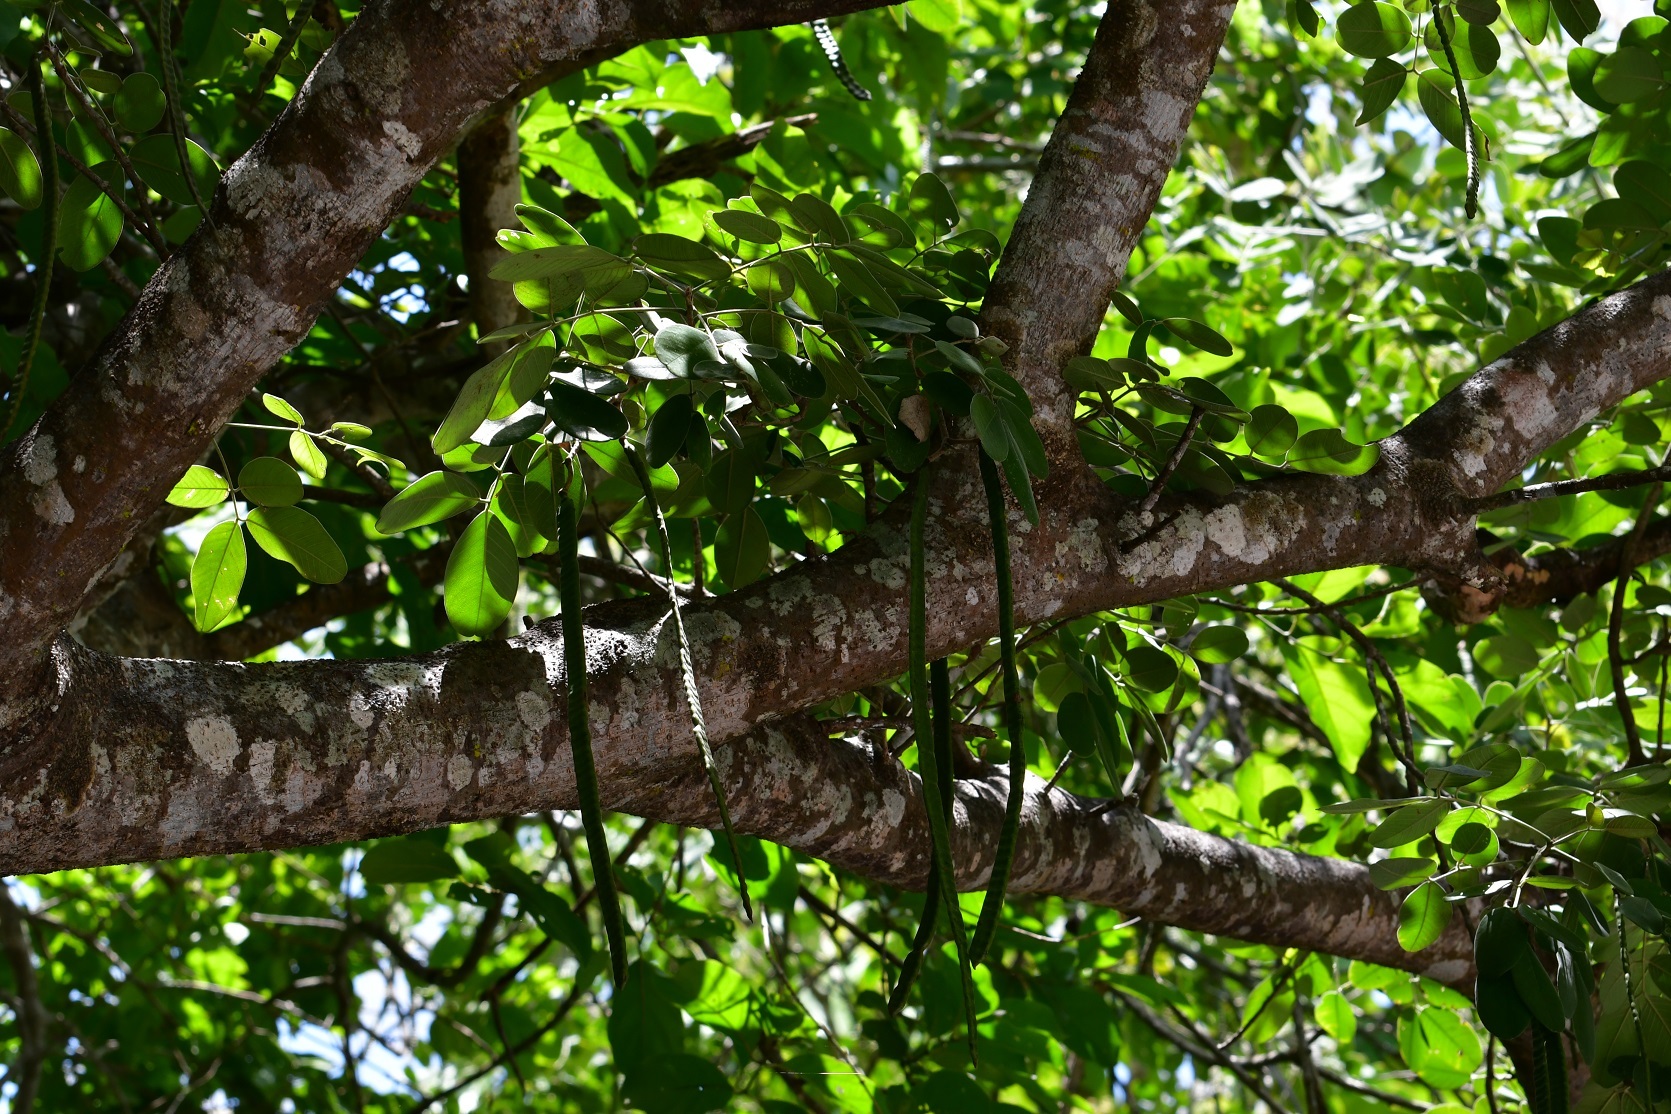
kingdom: Plantae
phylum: Tracheophyta
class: Magnoliopsida
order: Fabales
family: Fabaceae
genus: Senna
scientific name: Senna atomaria
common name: Flor de san jose
